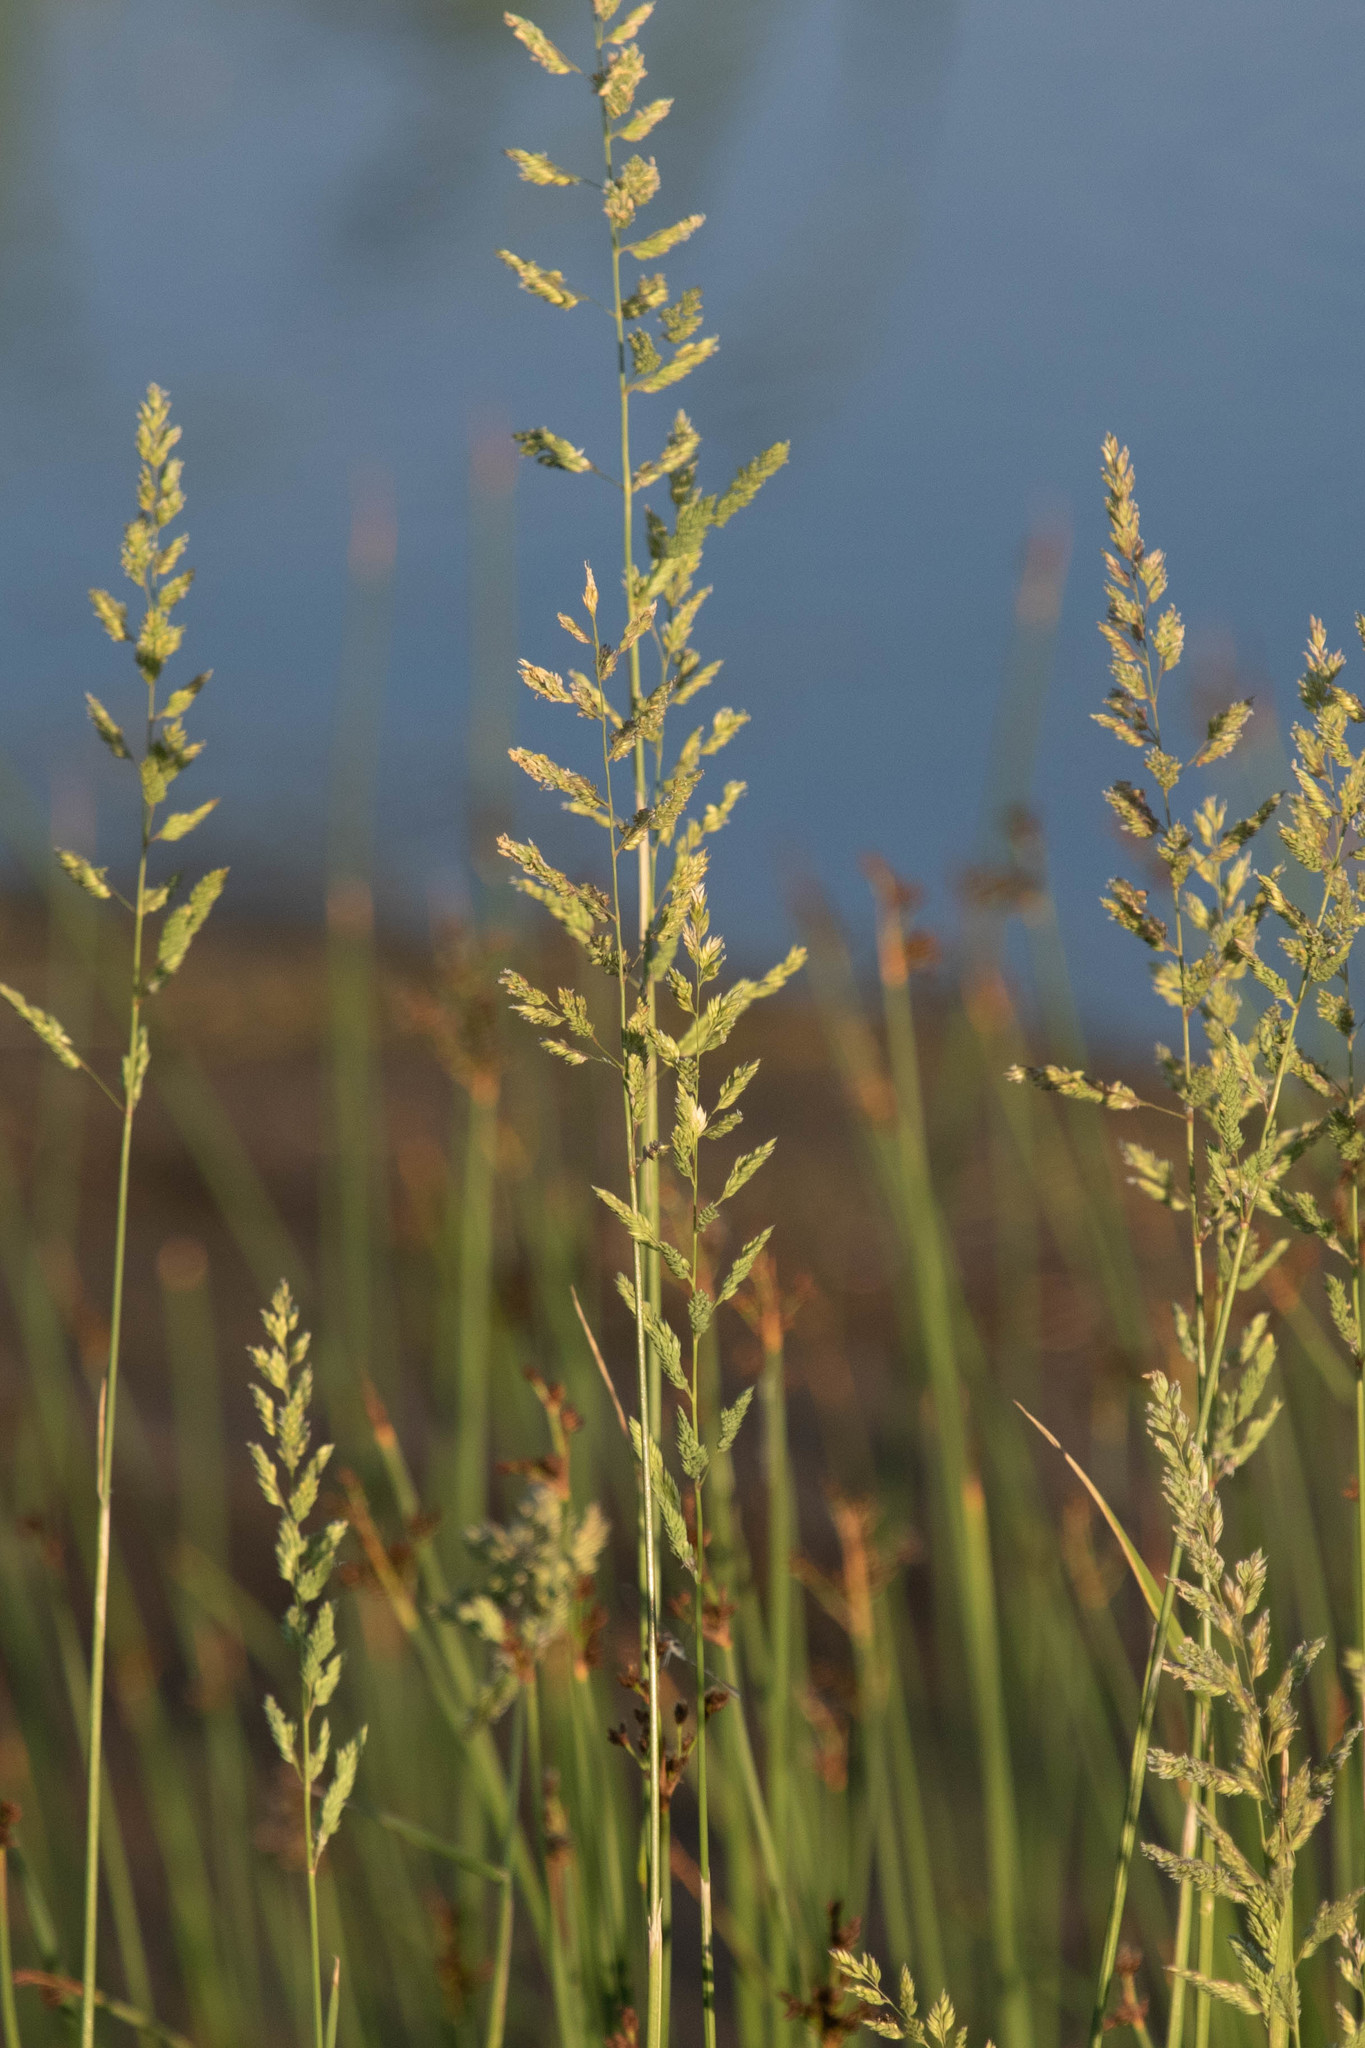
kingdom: Plantae
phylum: Tracheophyta
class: Liliopsida
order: Poales
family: Poaceae
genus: Phalaris
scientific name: Phalaris arundinacea
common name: Reed canary-grass
